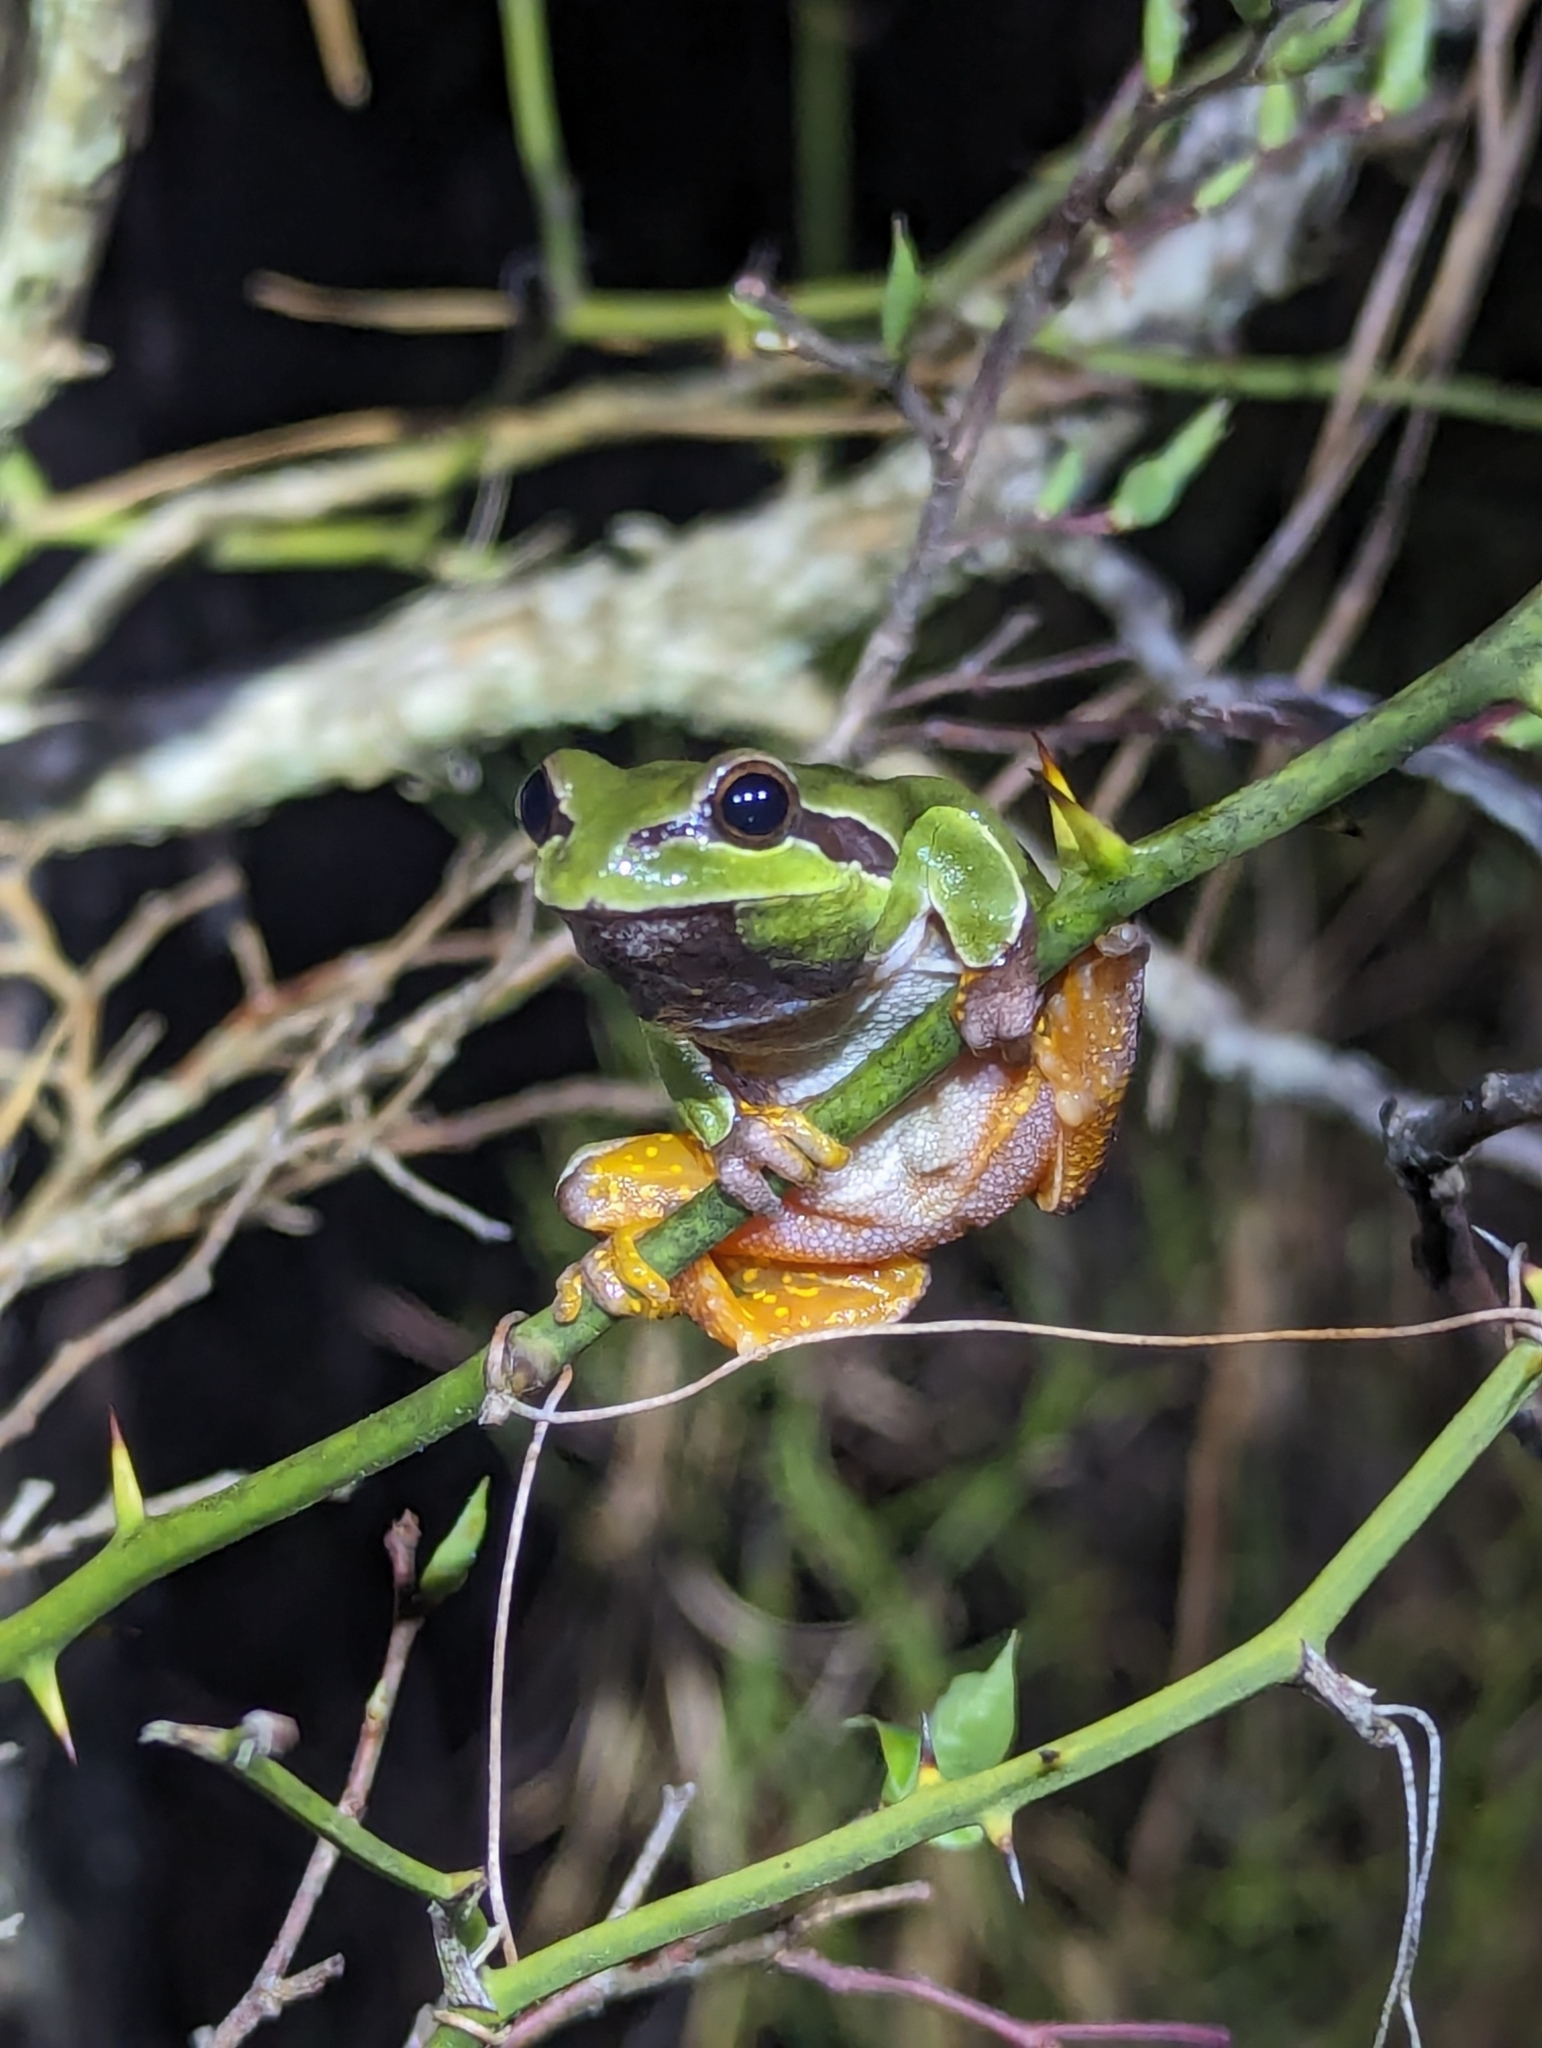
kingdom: Animalia
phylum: Chordata
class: Amphibia
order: Anura
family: Hylidae
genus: Dryophytes
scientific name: Dryophytes andersonii
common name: Pine barrens treefrog
